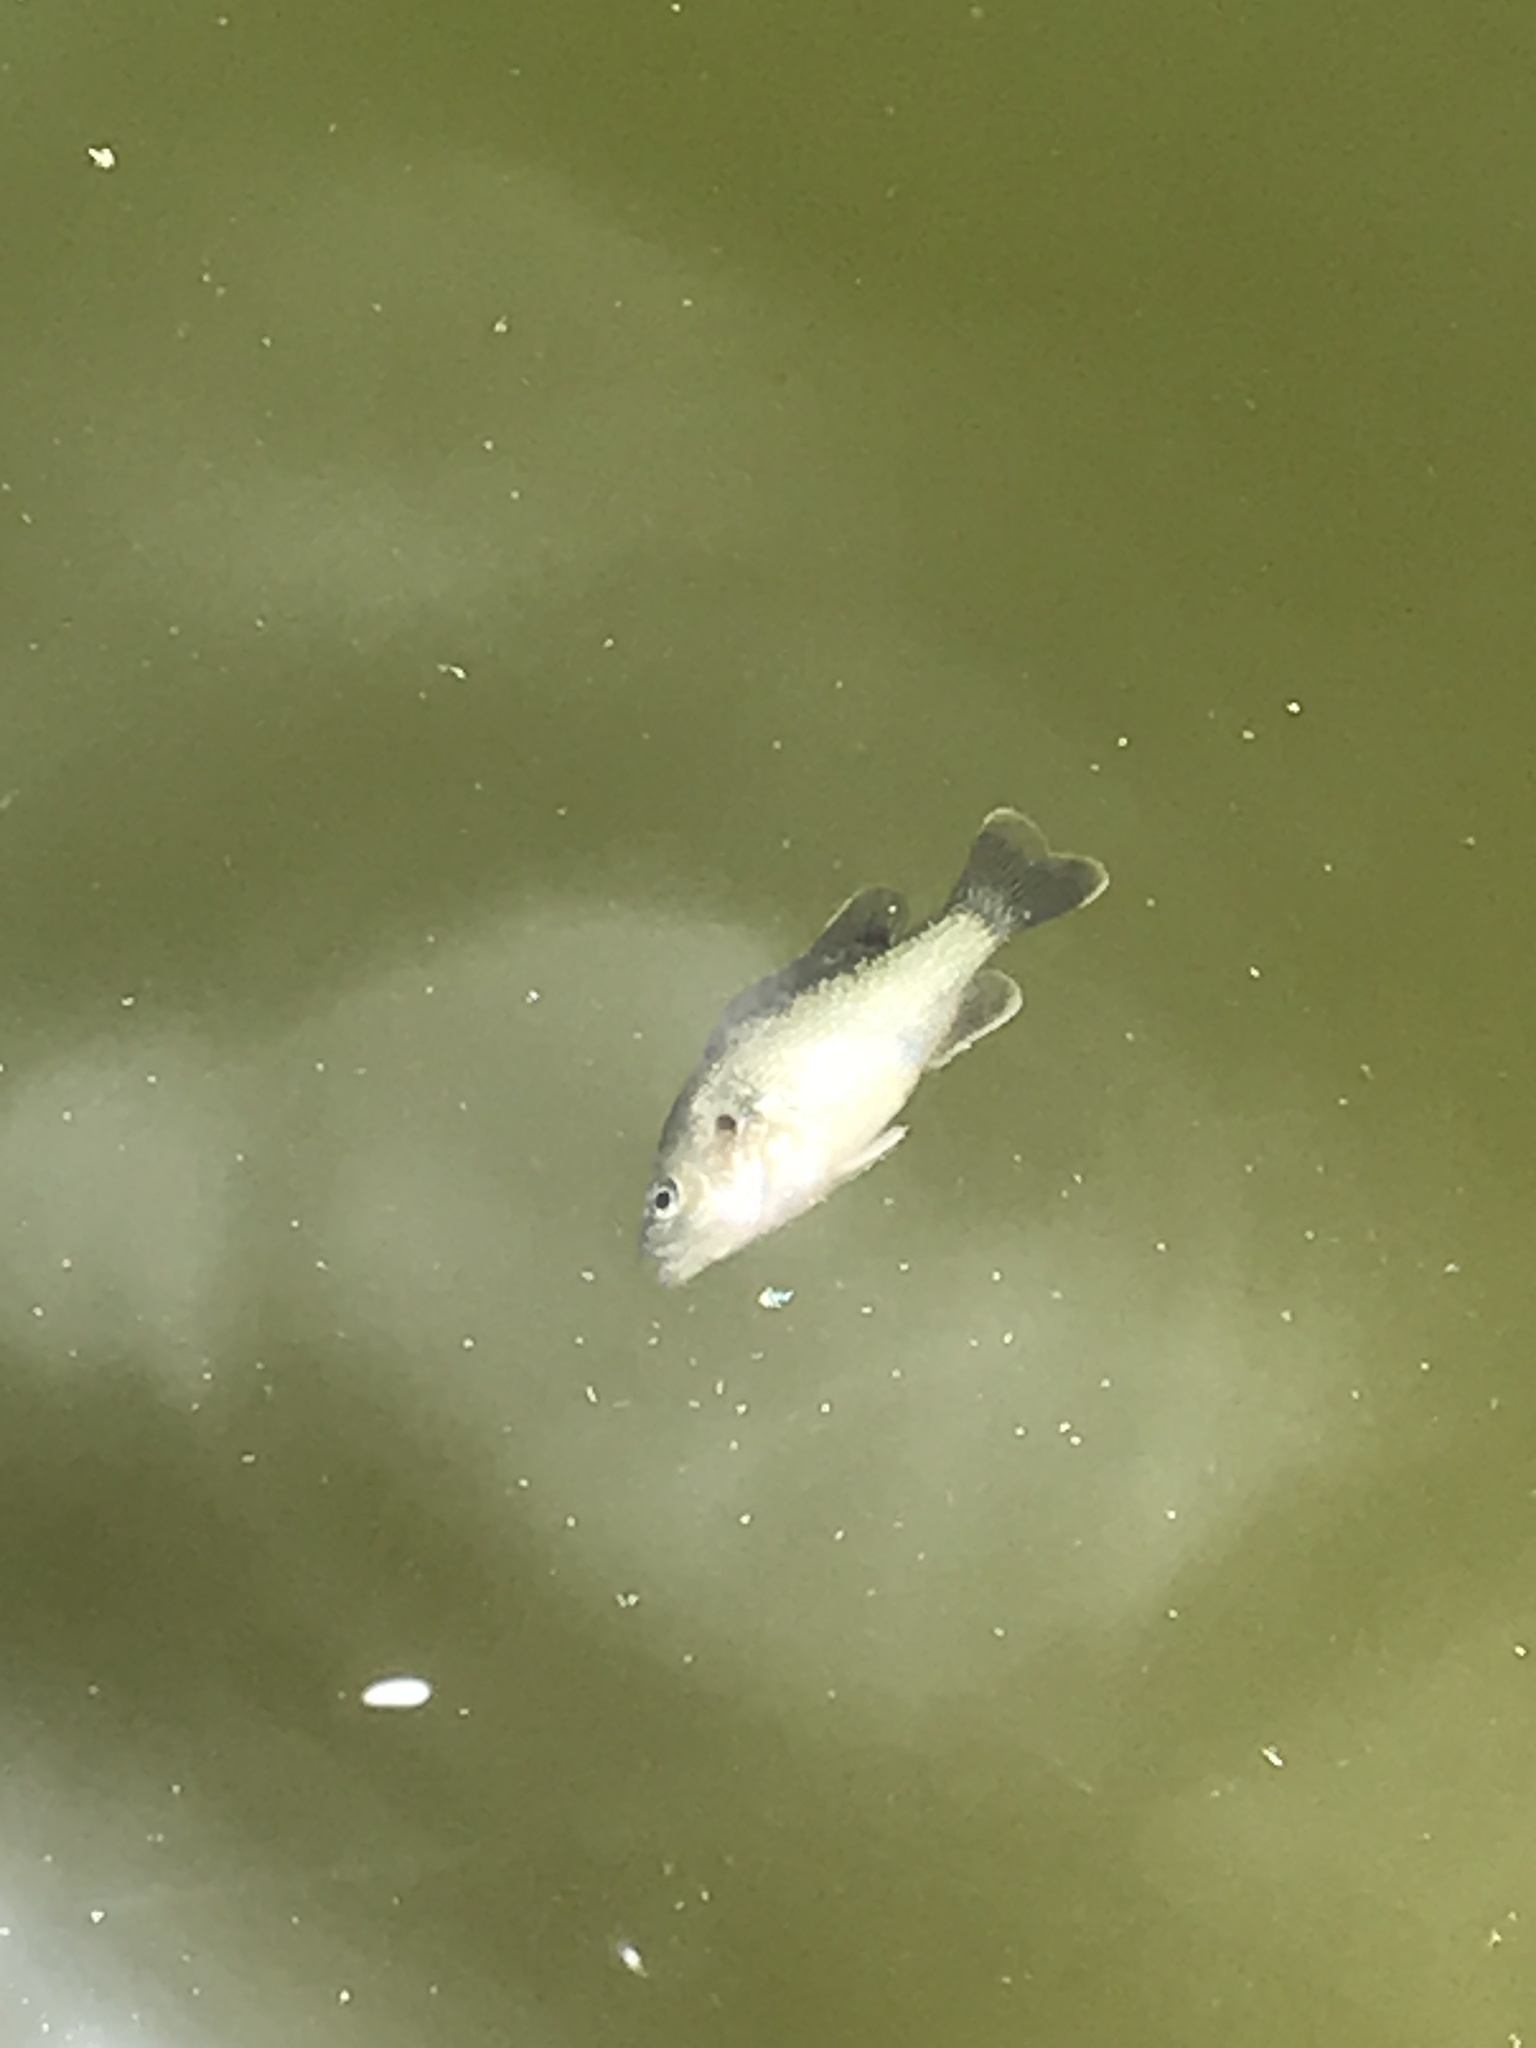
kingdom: Animalia
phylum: Chordata
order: Perciformes
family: Centrarchidae
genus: Lepomis
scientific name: Lepomis cyanellus
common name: Green sunfish
